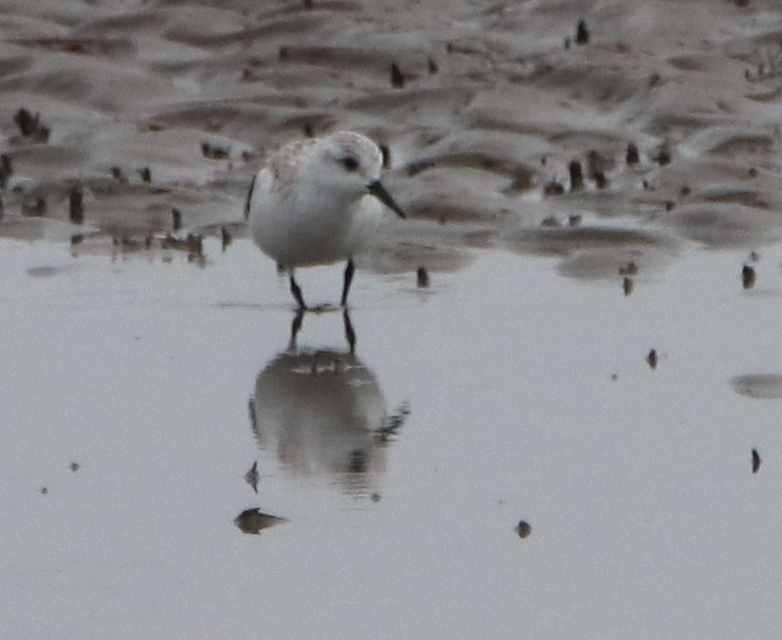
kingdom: Animalia
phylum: Chordata
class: Aves
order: Charadriiformes
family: Scolopacidae
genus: Calidris
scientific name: Calidris alba
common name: Sanderling
